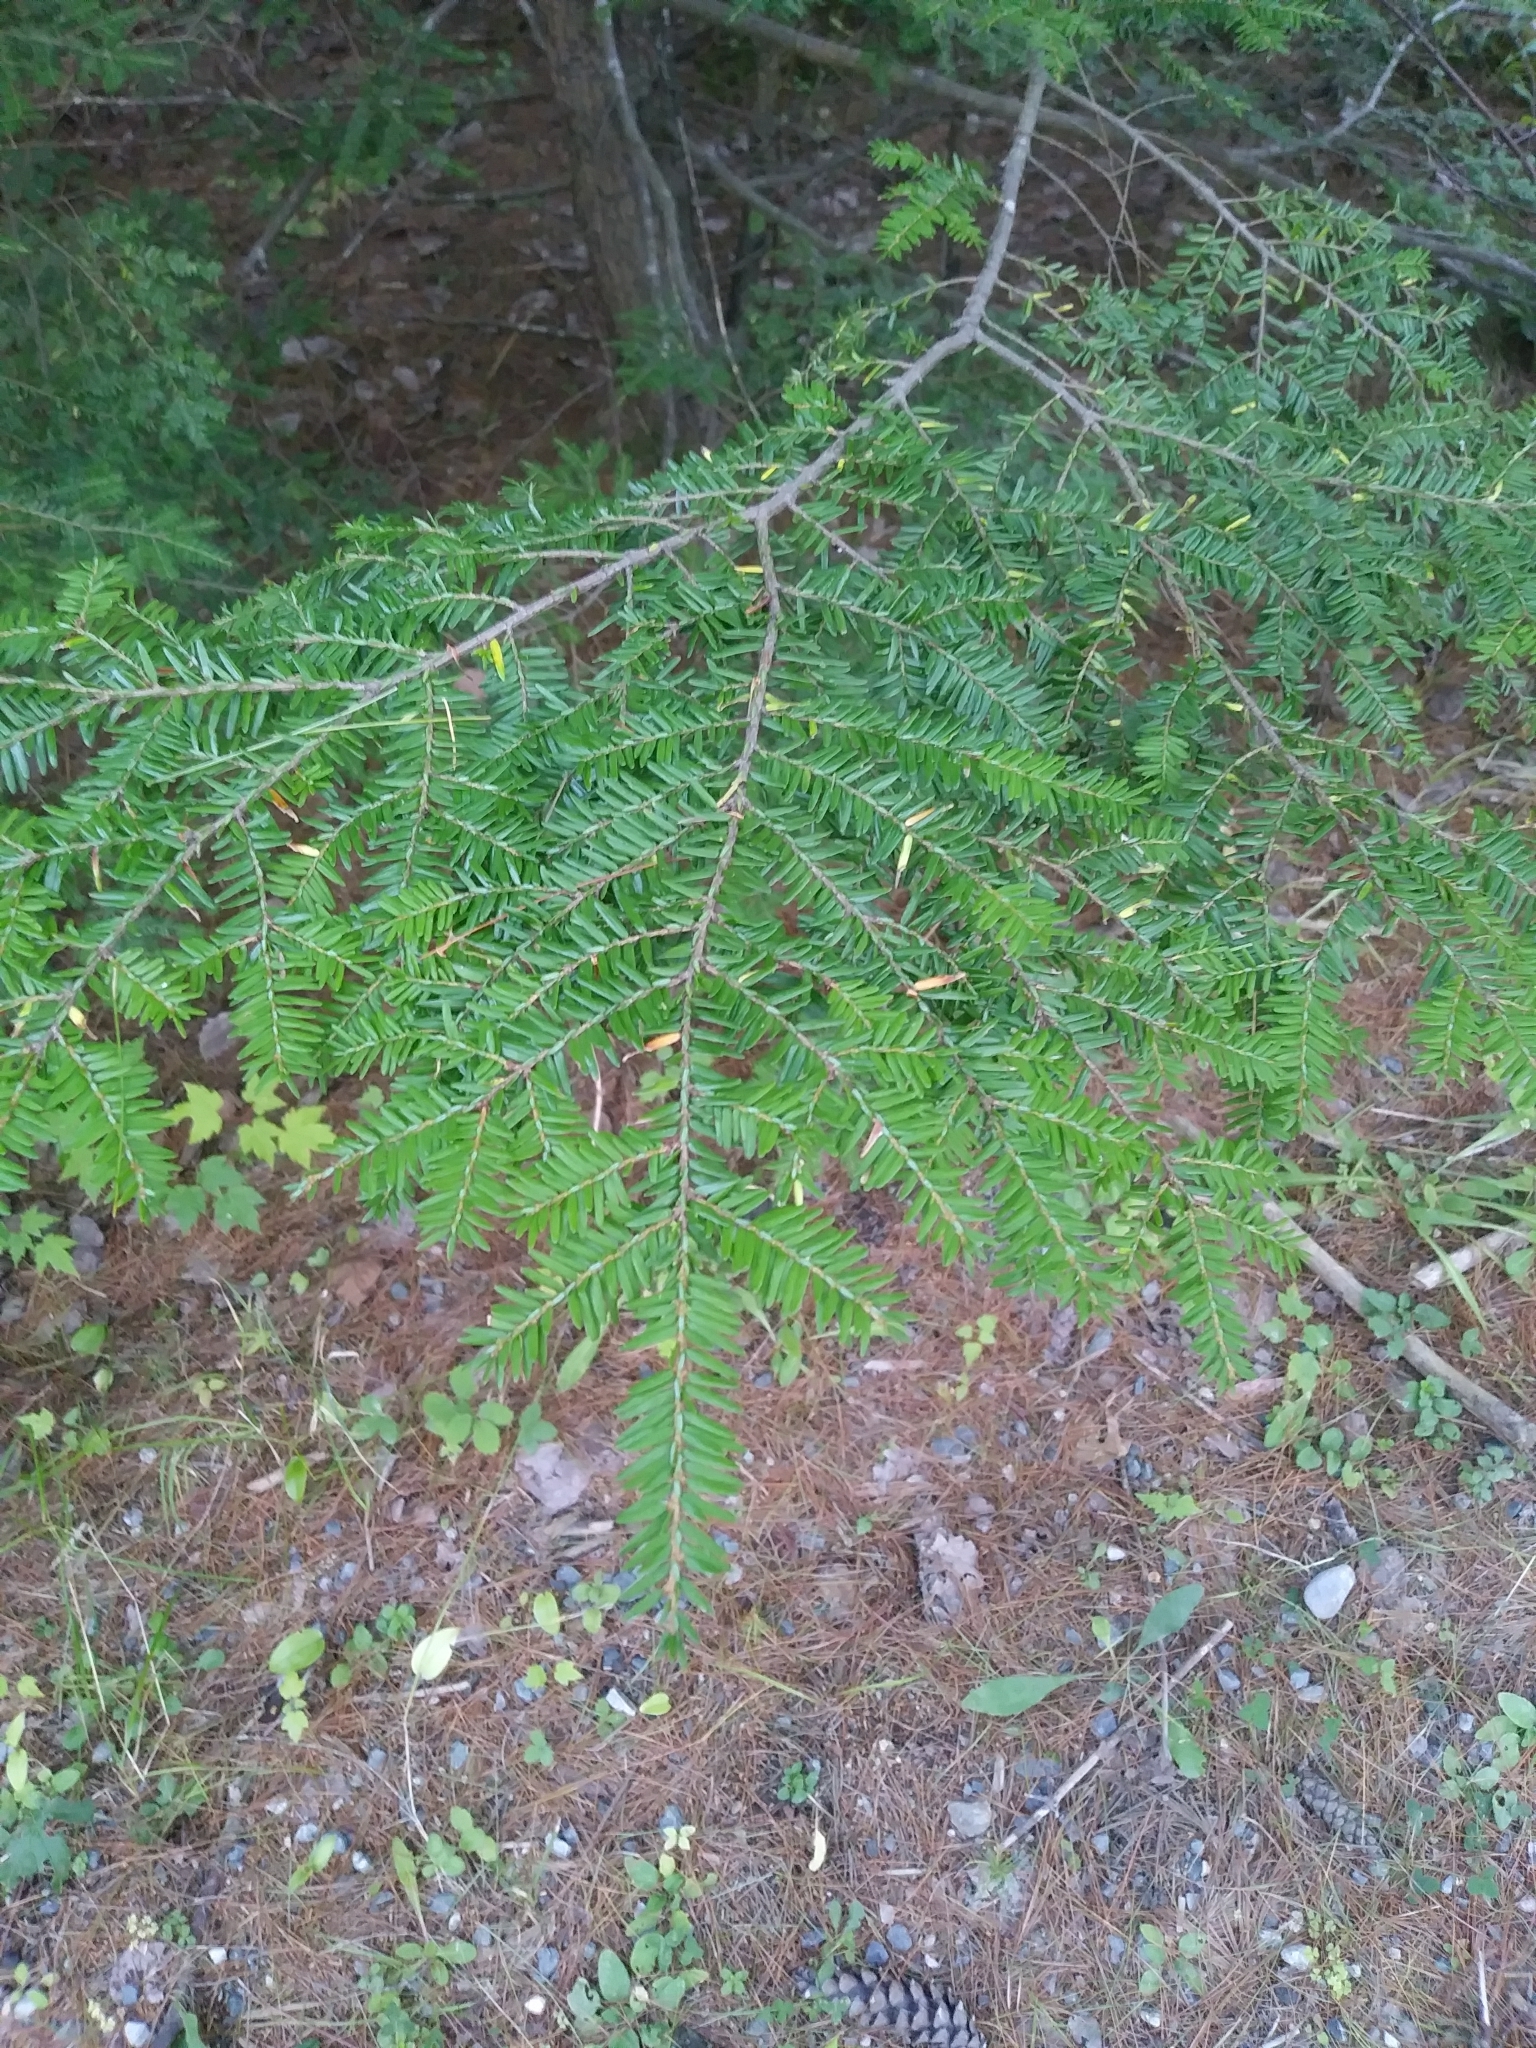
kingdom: Plantae
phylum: Tracheophyta
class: Pinopsida
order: Pinales
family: Pinaceae
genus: Tsuga
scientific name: Tsuga canadensis
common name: Eastern hemlock
